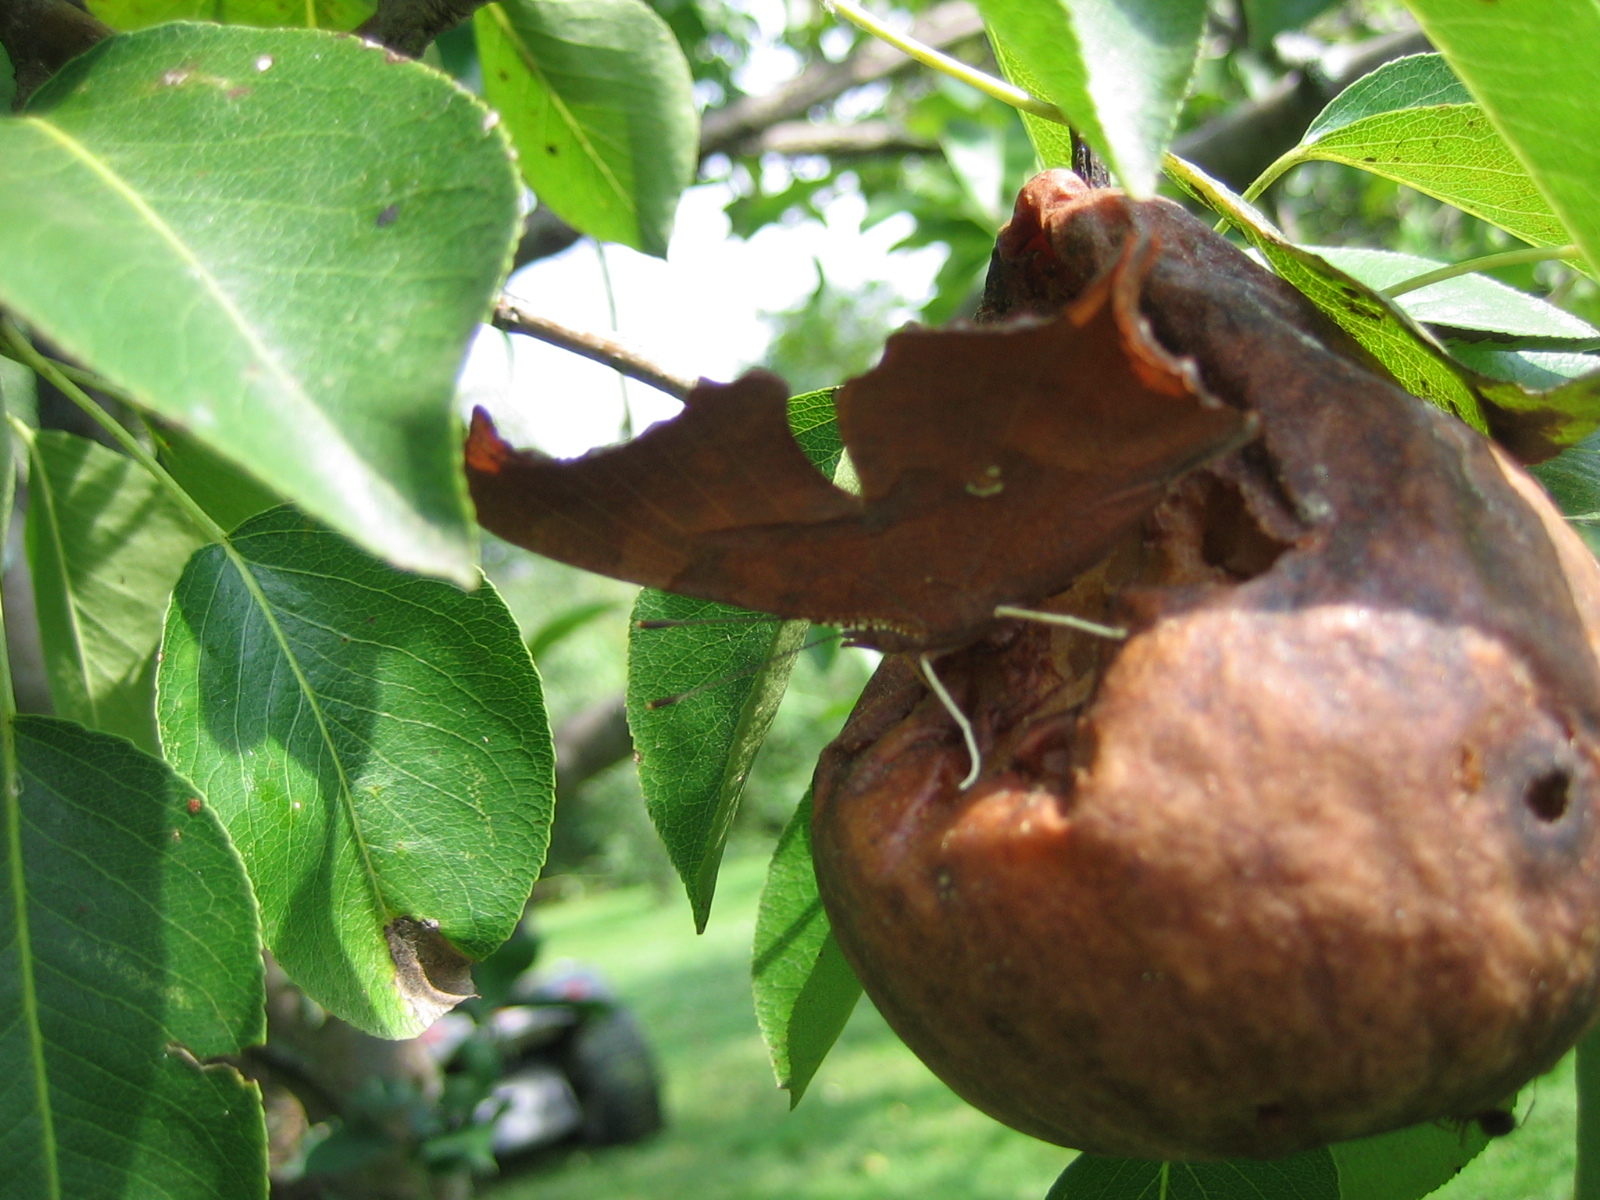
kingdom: Animalia
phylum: Arthropoda
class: Insecta
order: Lepidoptera
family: Nymphalidae
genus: Polygonia
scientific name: Polygonia interrogationis
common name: Question mark
